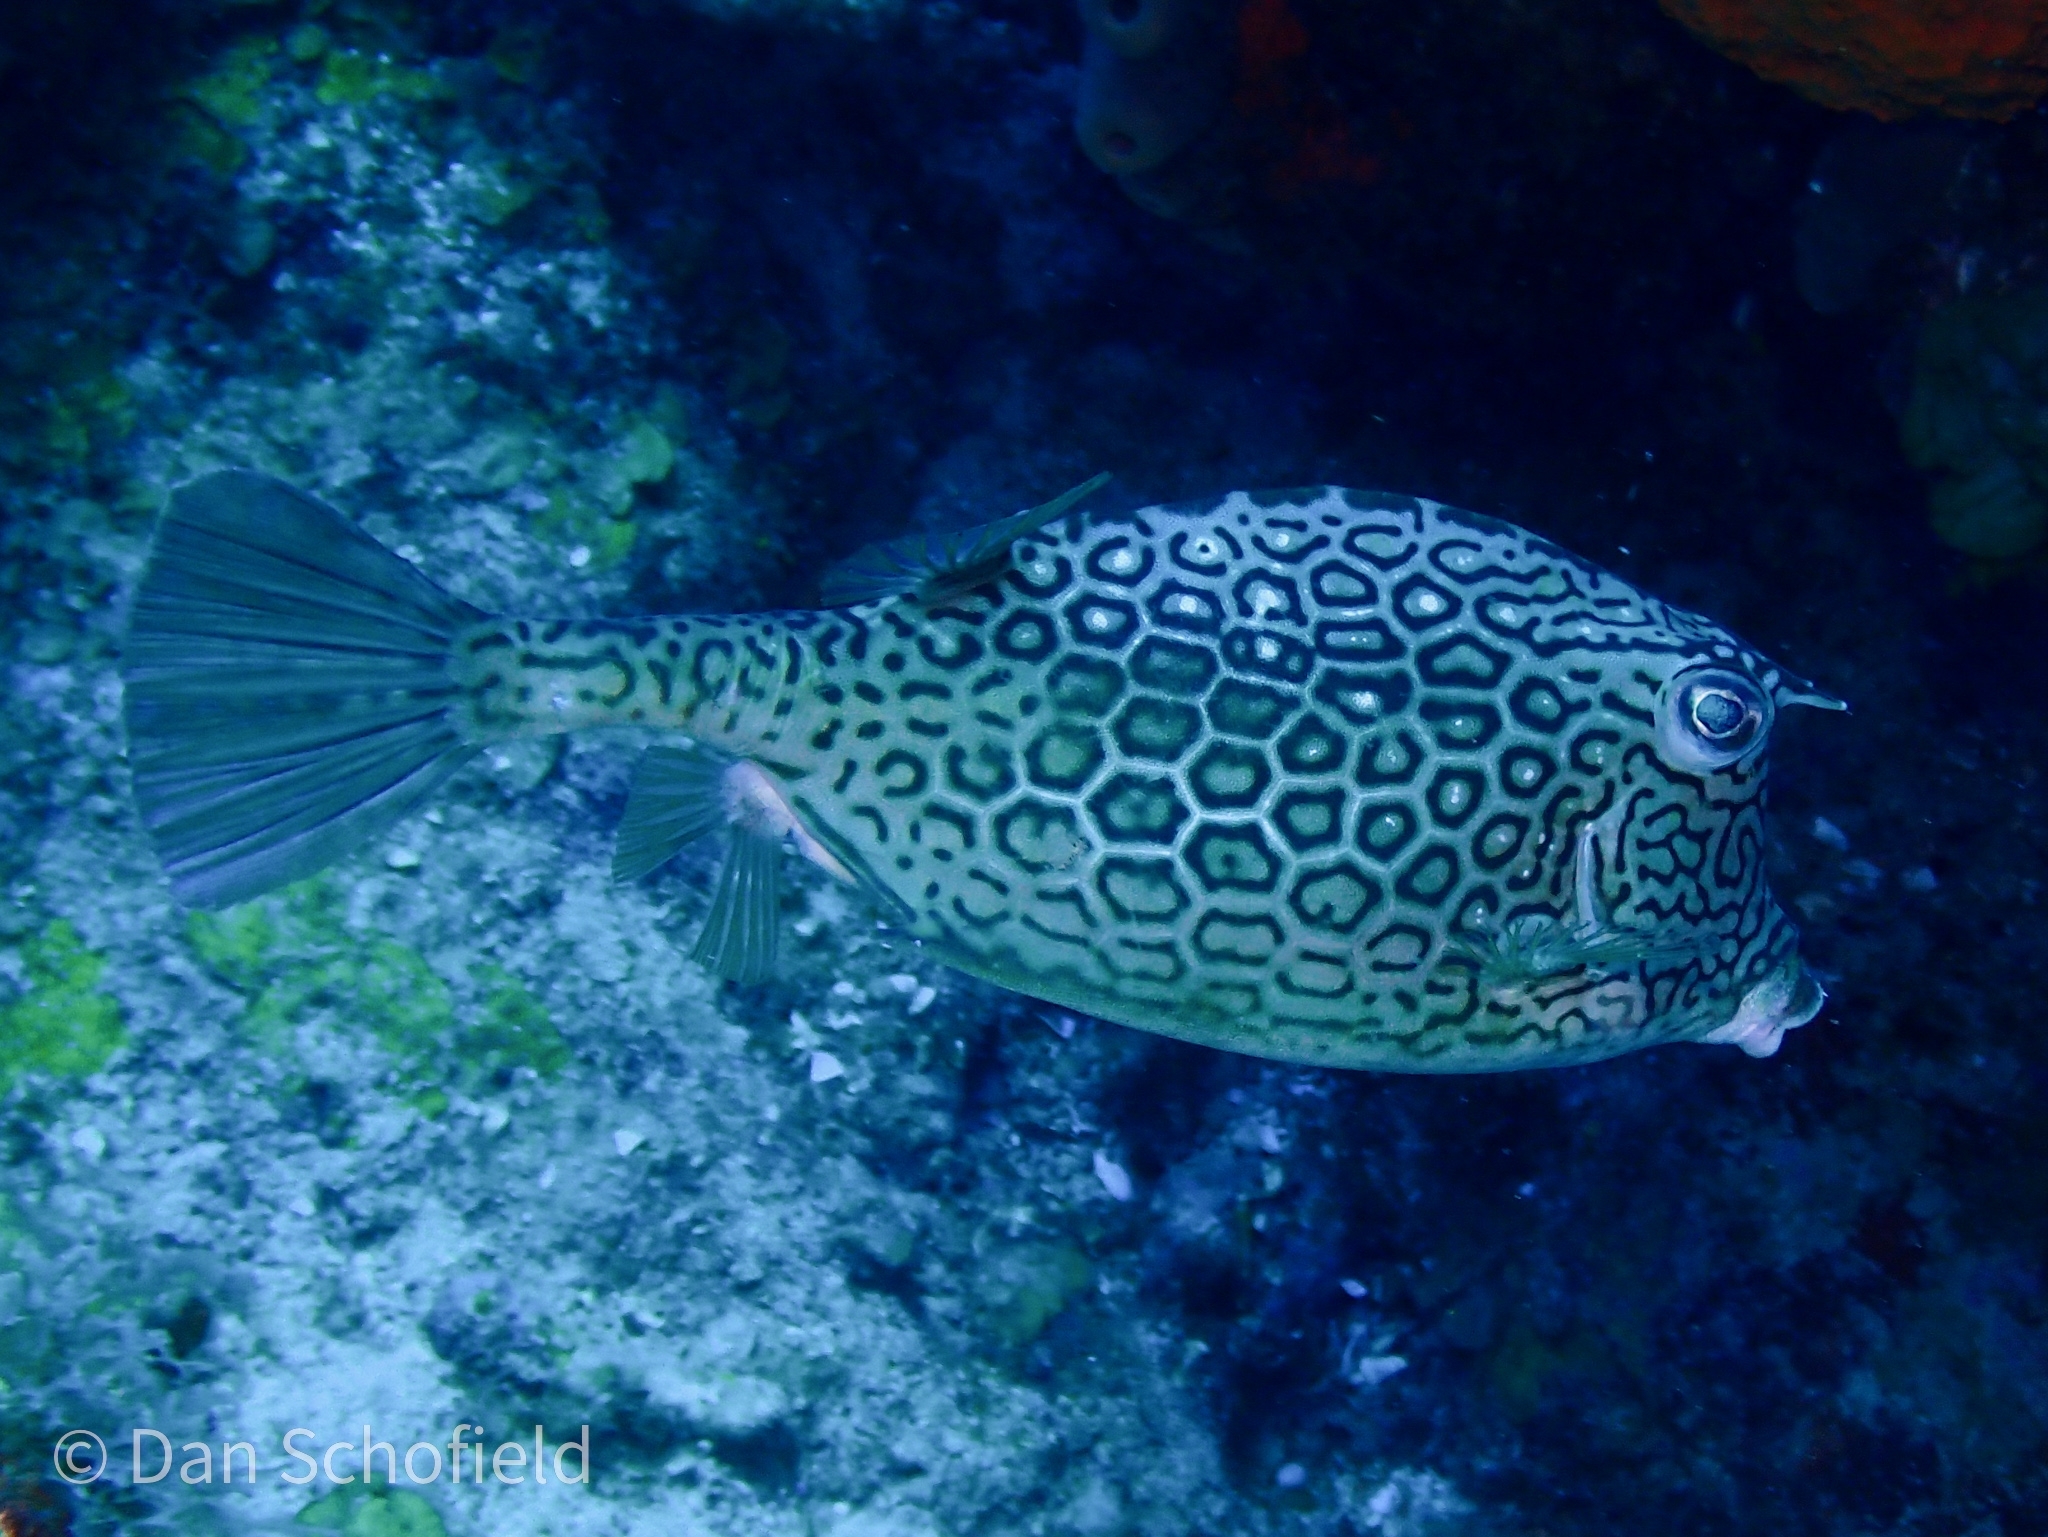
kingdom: Animalia
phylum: Chordata
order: Tetraodontiformes
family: Ostraciidae
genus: Acanthostracion
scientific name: Acanthostracion polygonius
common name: Honeycomb cowfish
